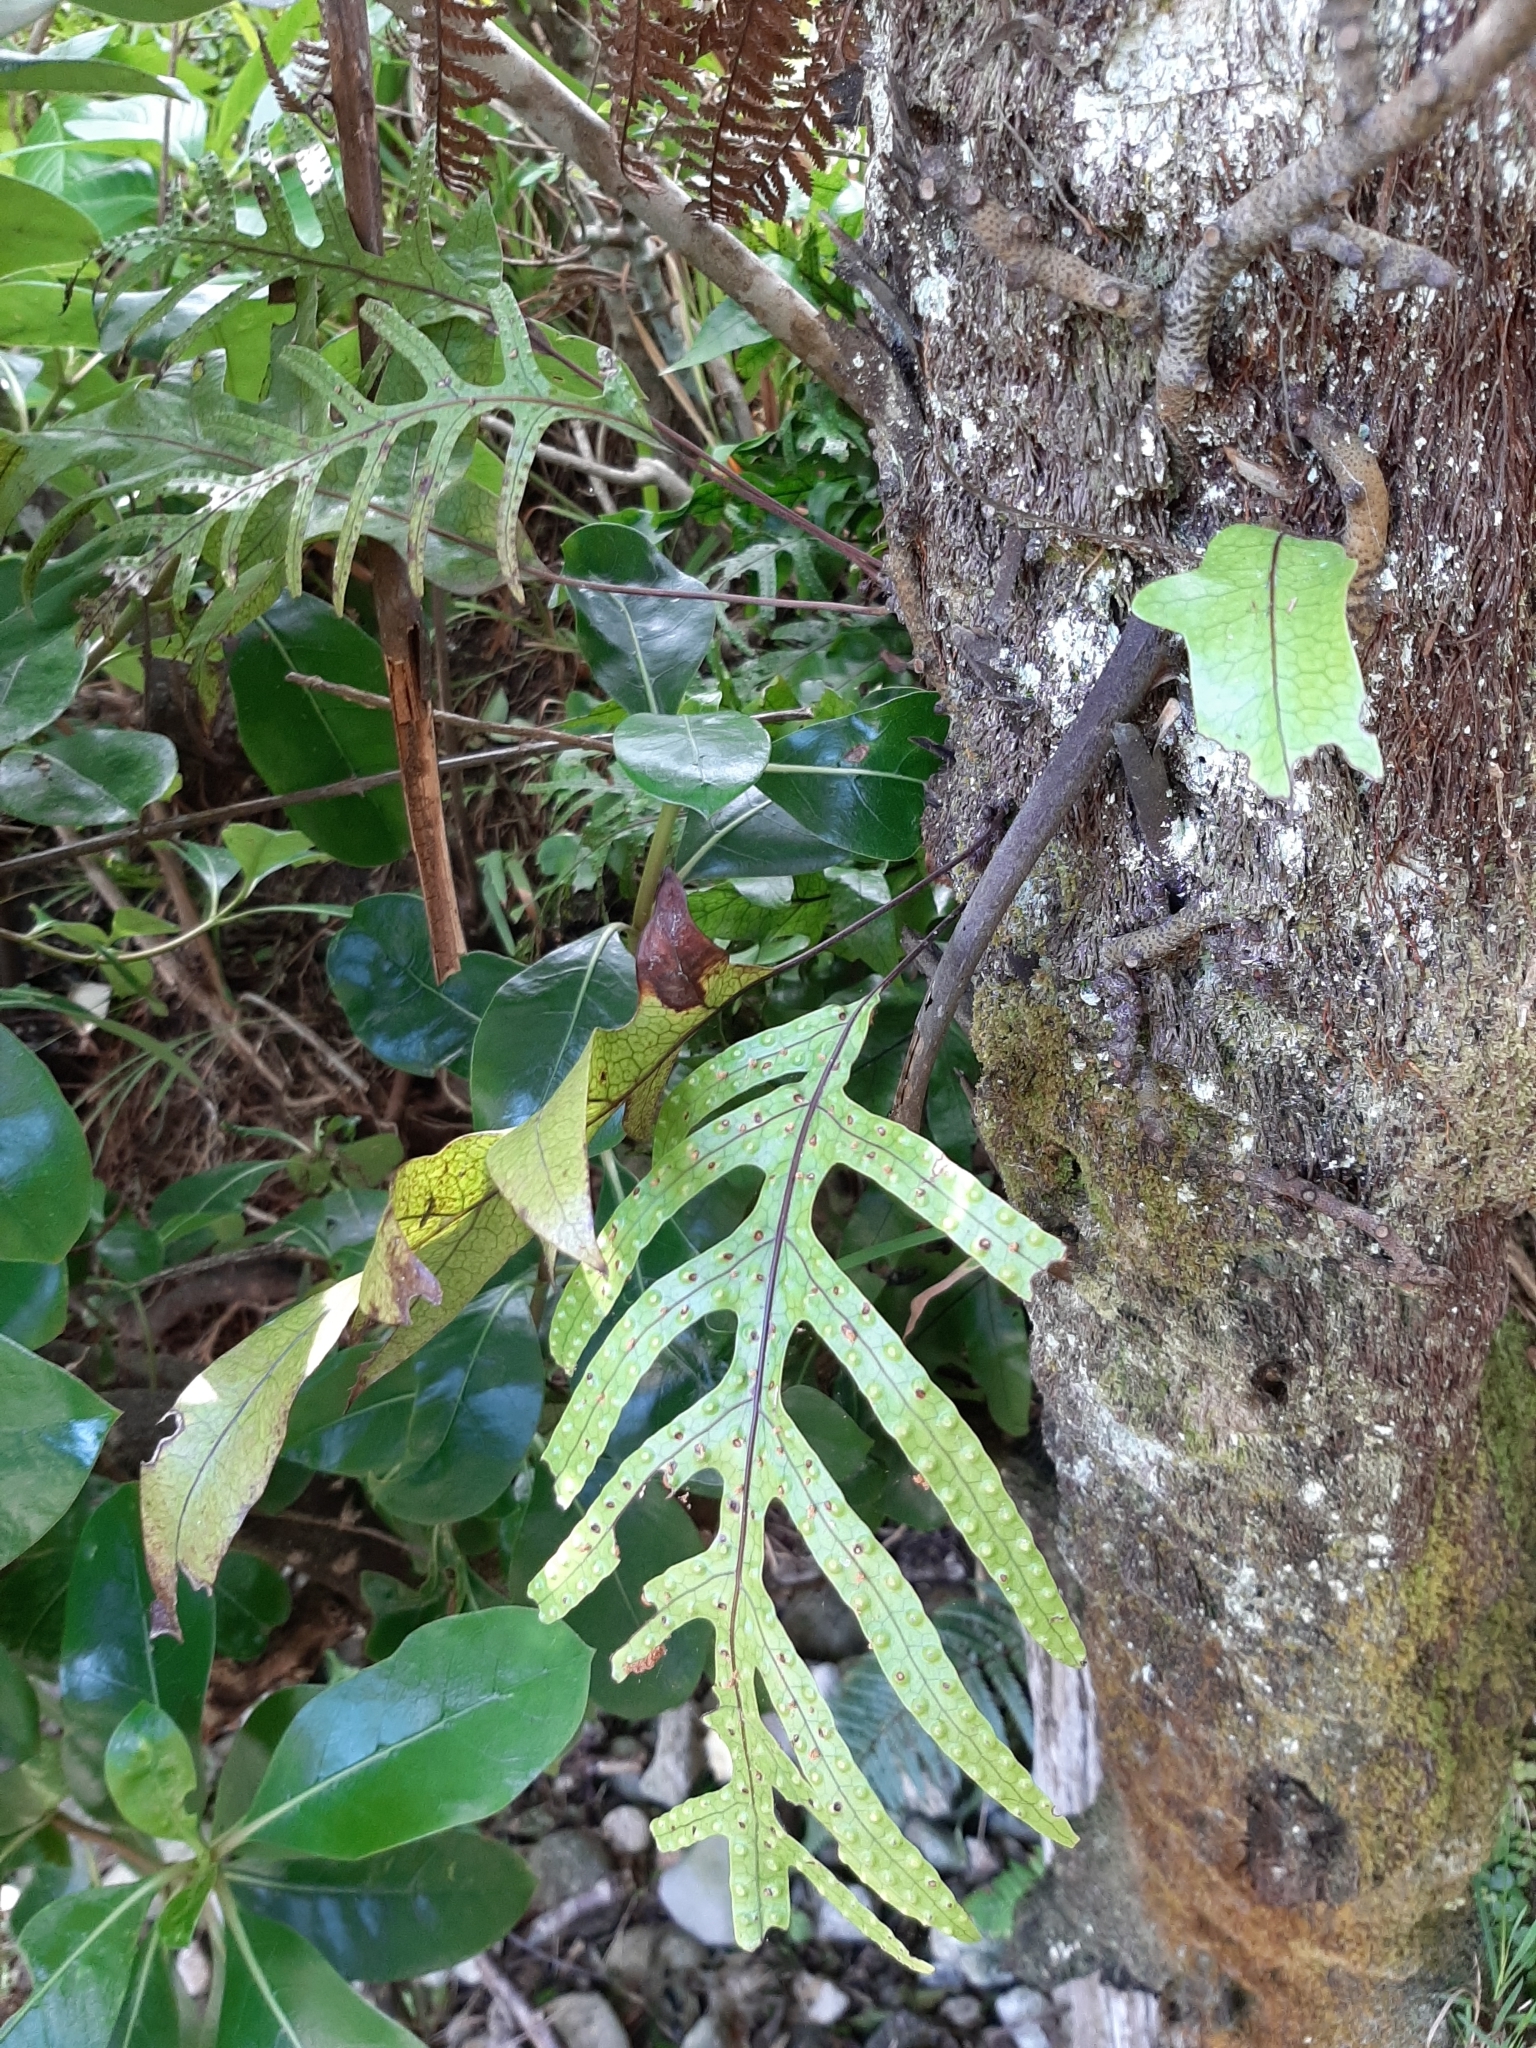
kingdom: Plantae
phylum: Tracheophyta
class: Polypodiopsida
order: Polypodiales
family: Polypodiaceae
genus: Lecanopteris
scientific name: Lecanopteris pustulata
